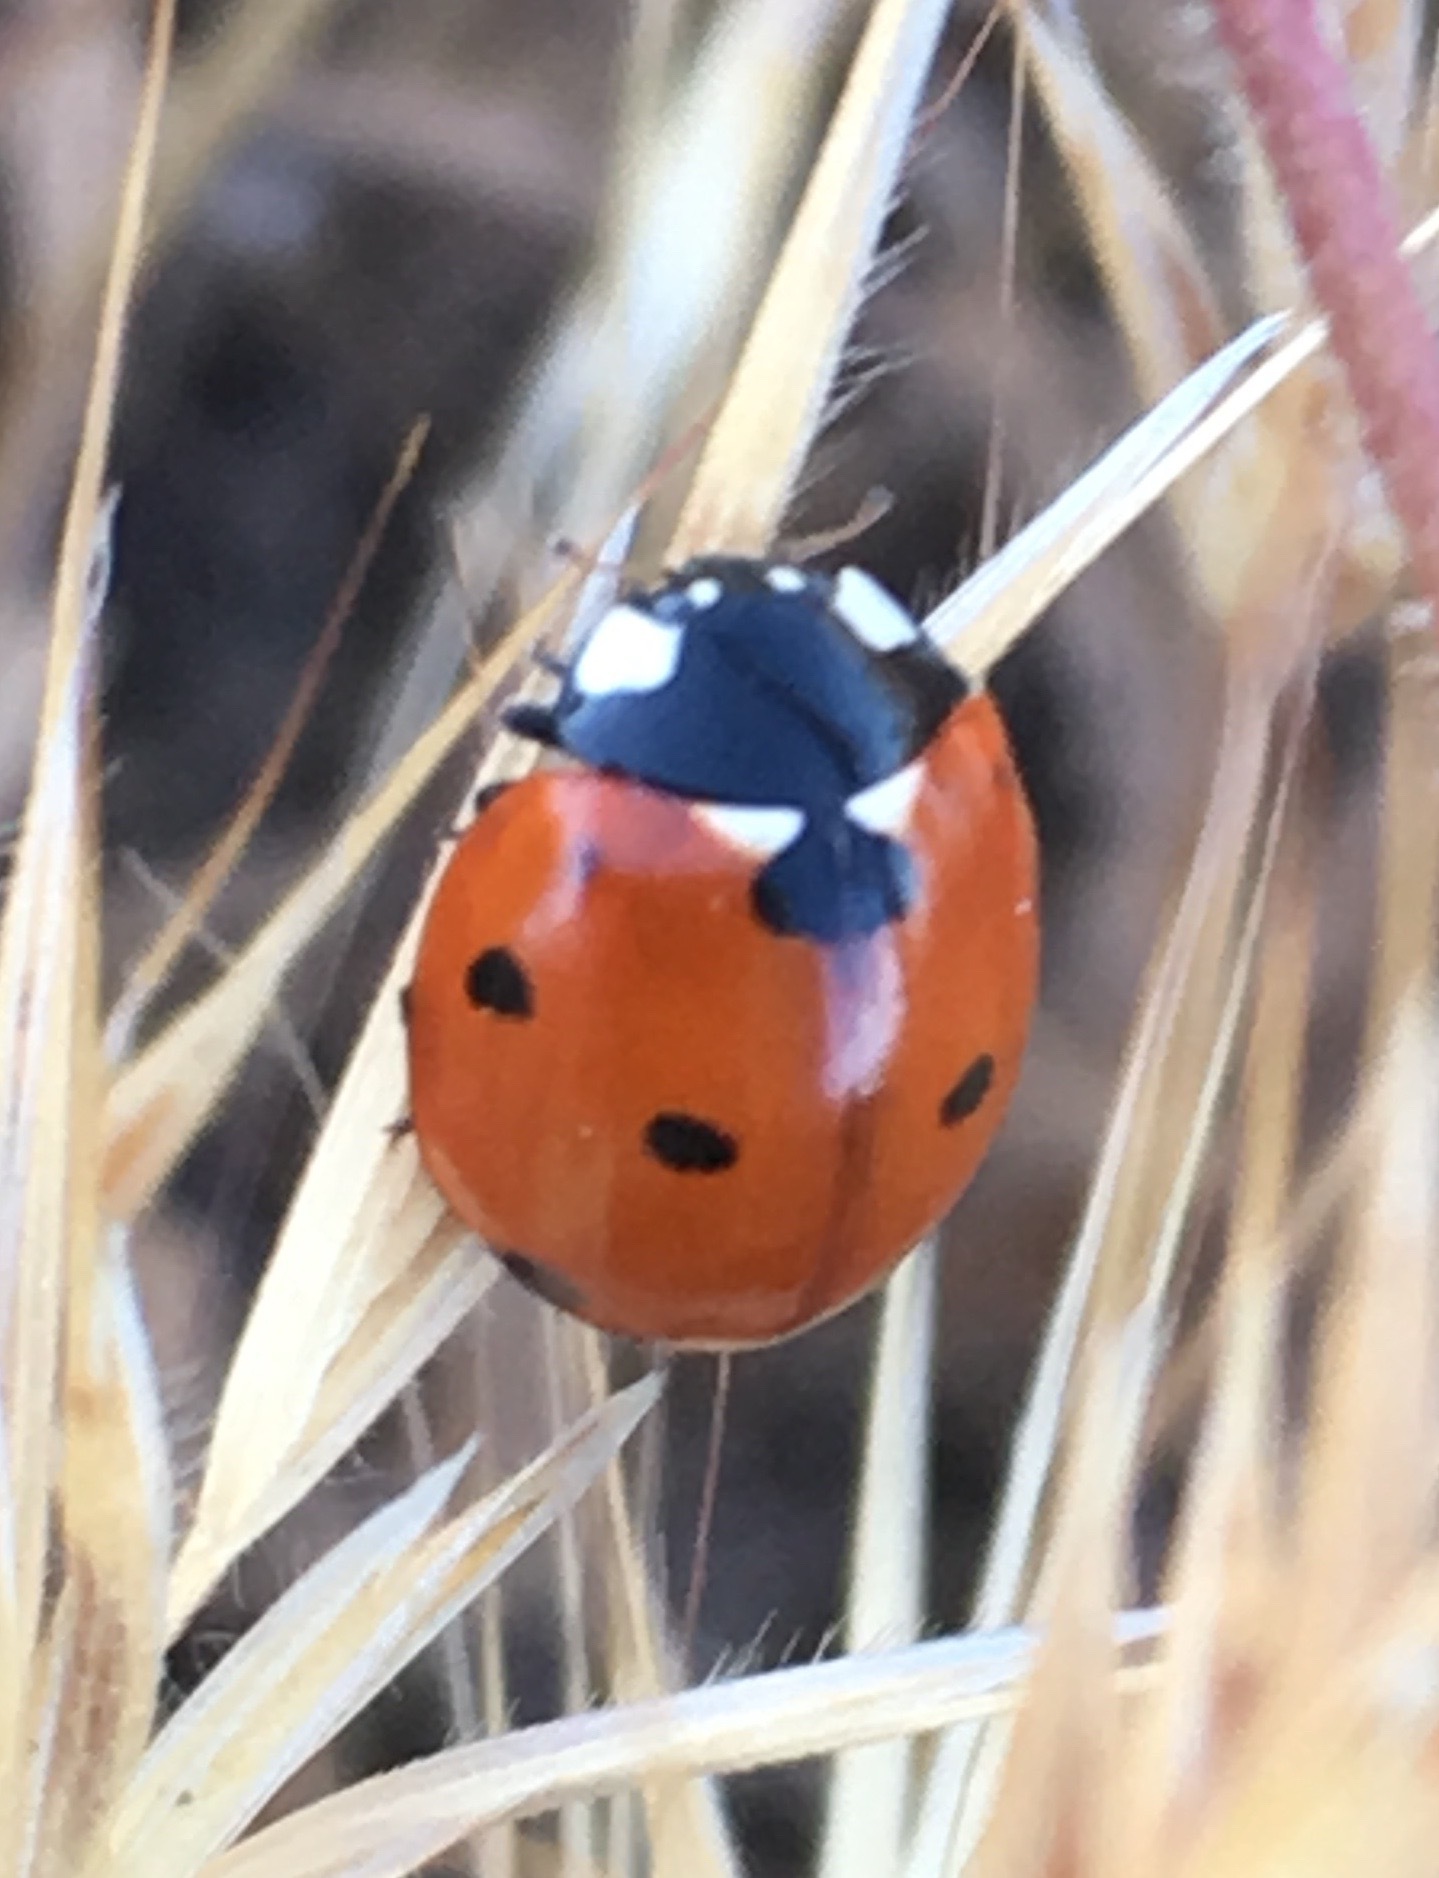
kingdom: Animalia
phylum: Arthropoda
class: Insecta
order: Coleoptera
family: Coccinellidae
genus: Coccinella
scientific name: Coccinella septempunctata
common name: Sevenspotted lady beetle
